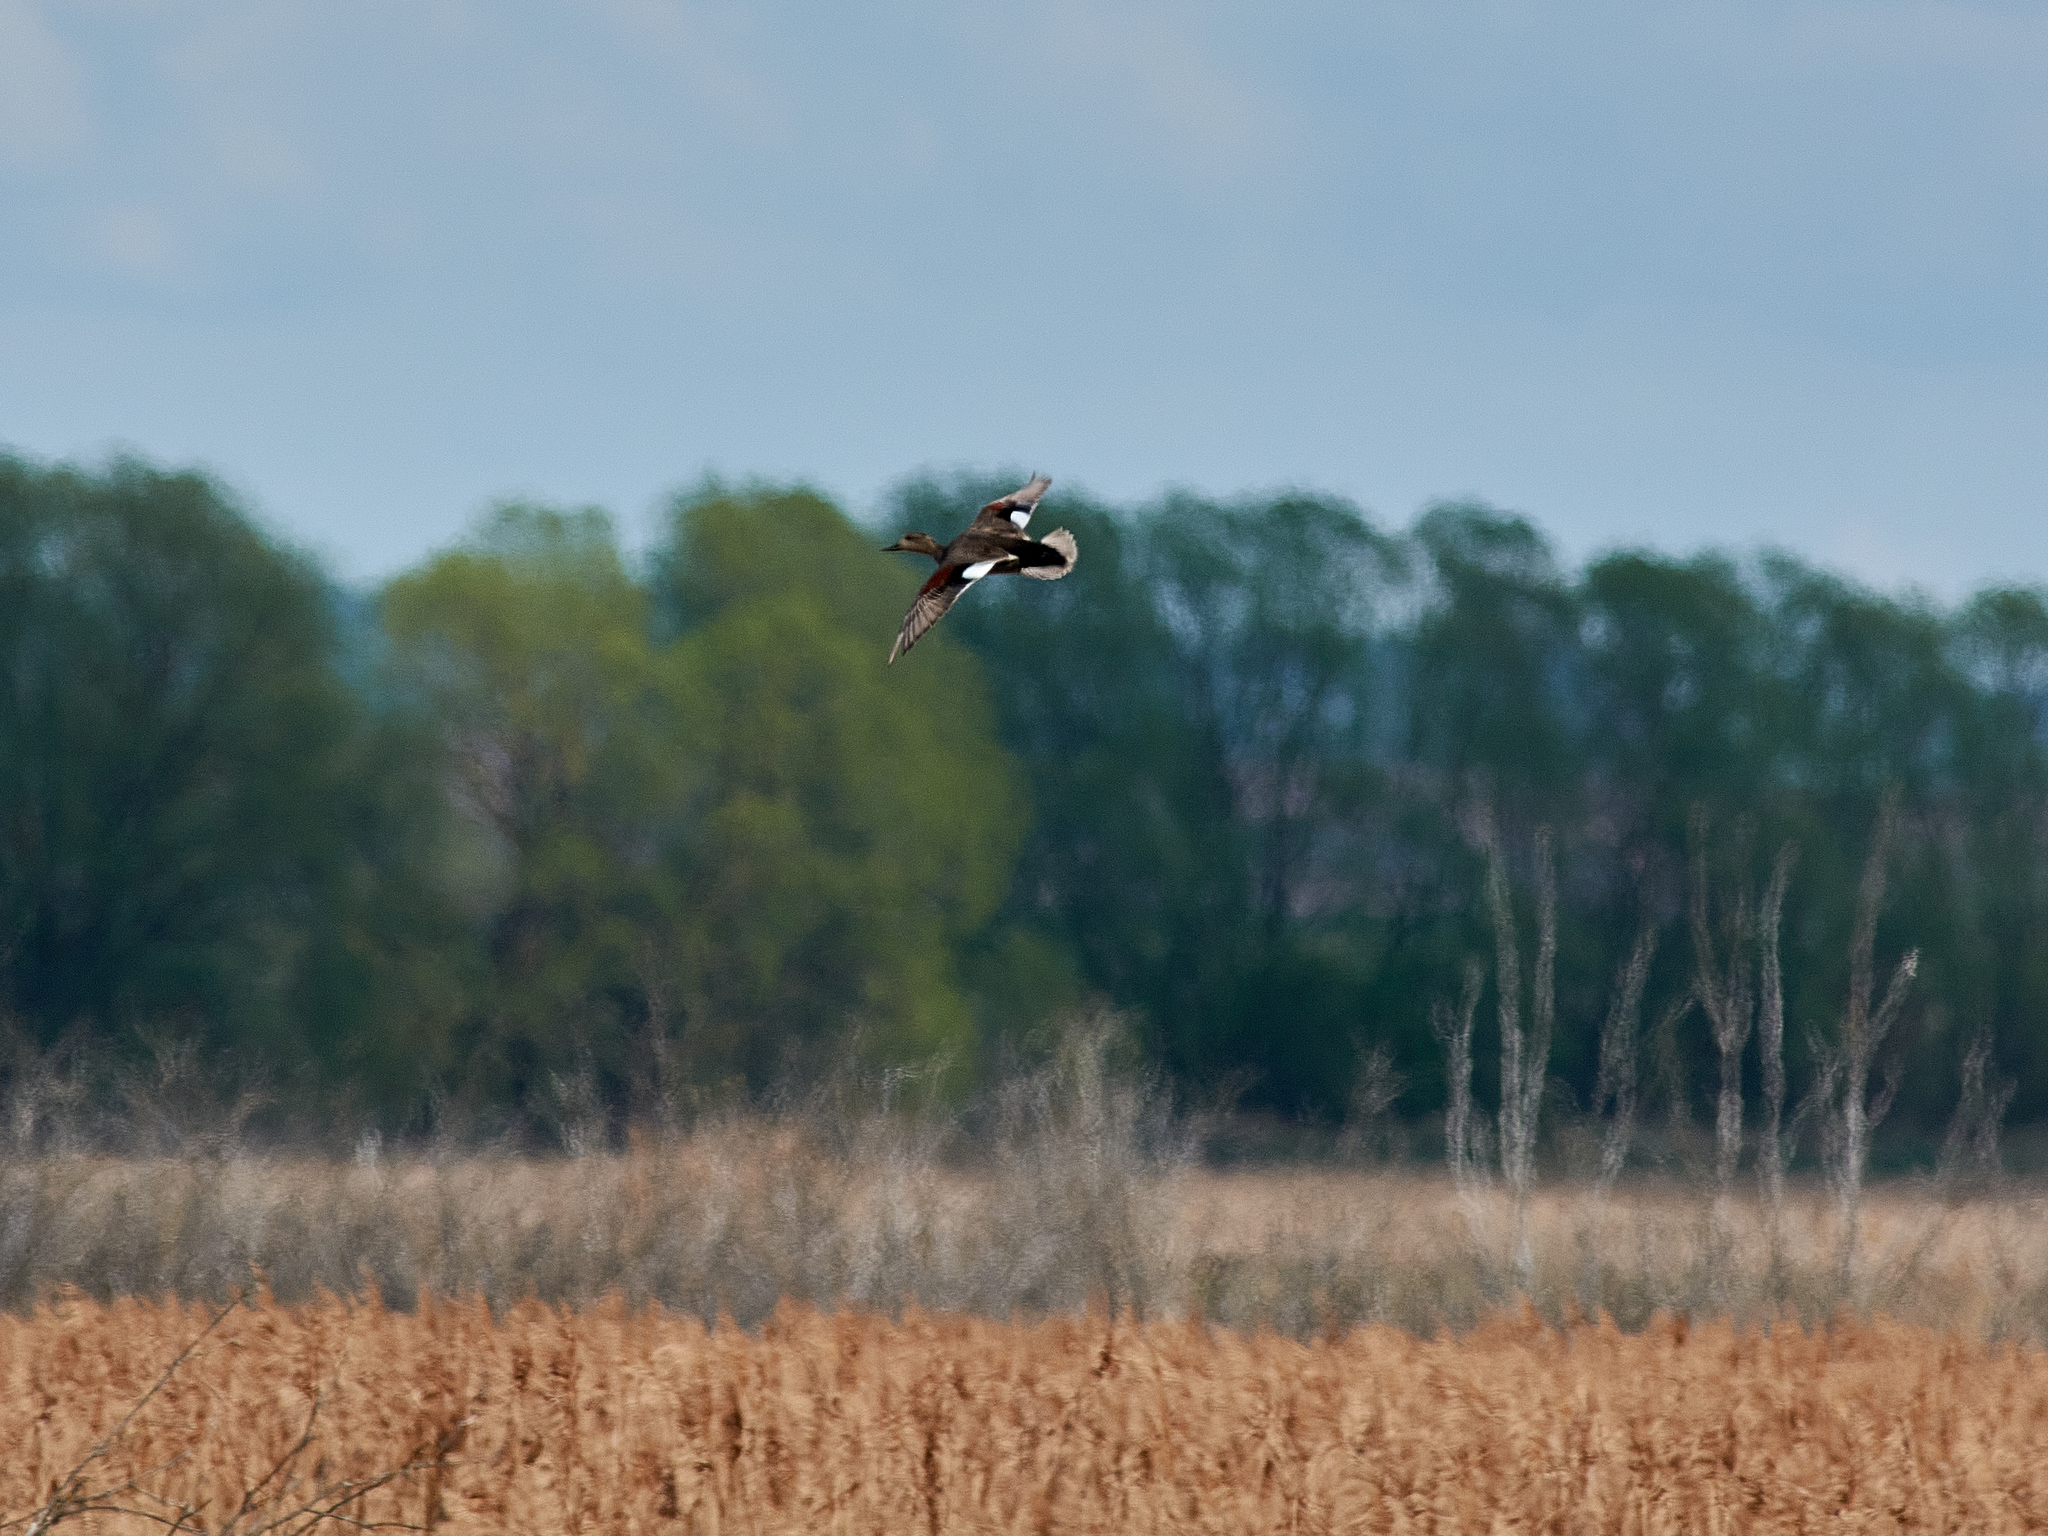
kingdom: Animalia
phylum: Chordata
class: Aves
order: Anseriformes
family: Anatidae
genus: Mareca
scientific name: Mareca strepera
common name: Gadwall
